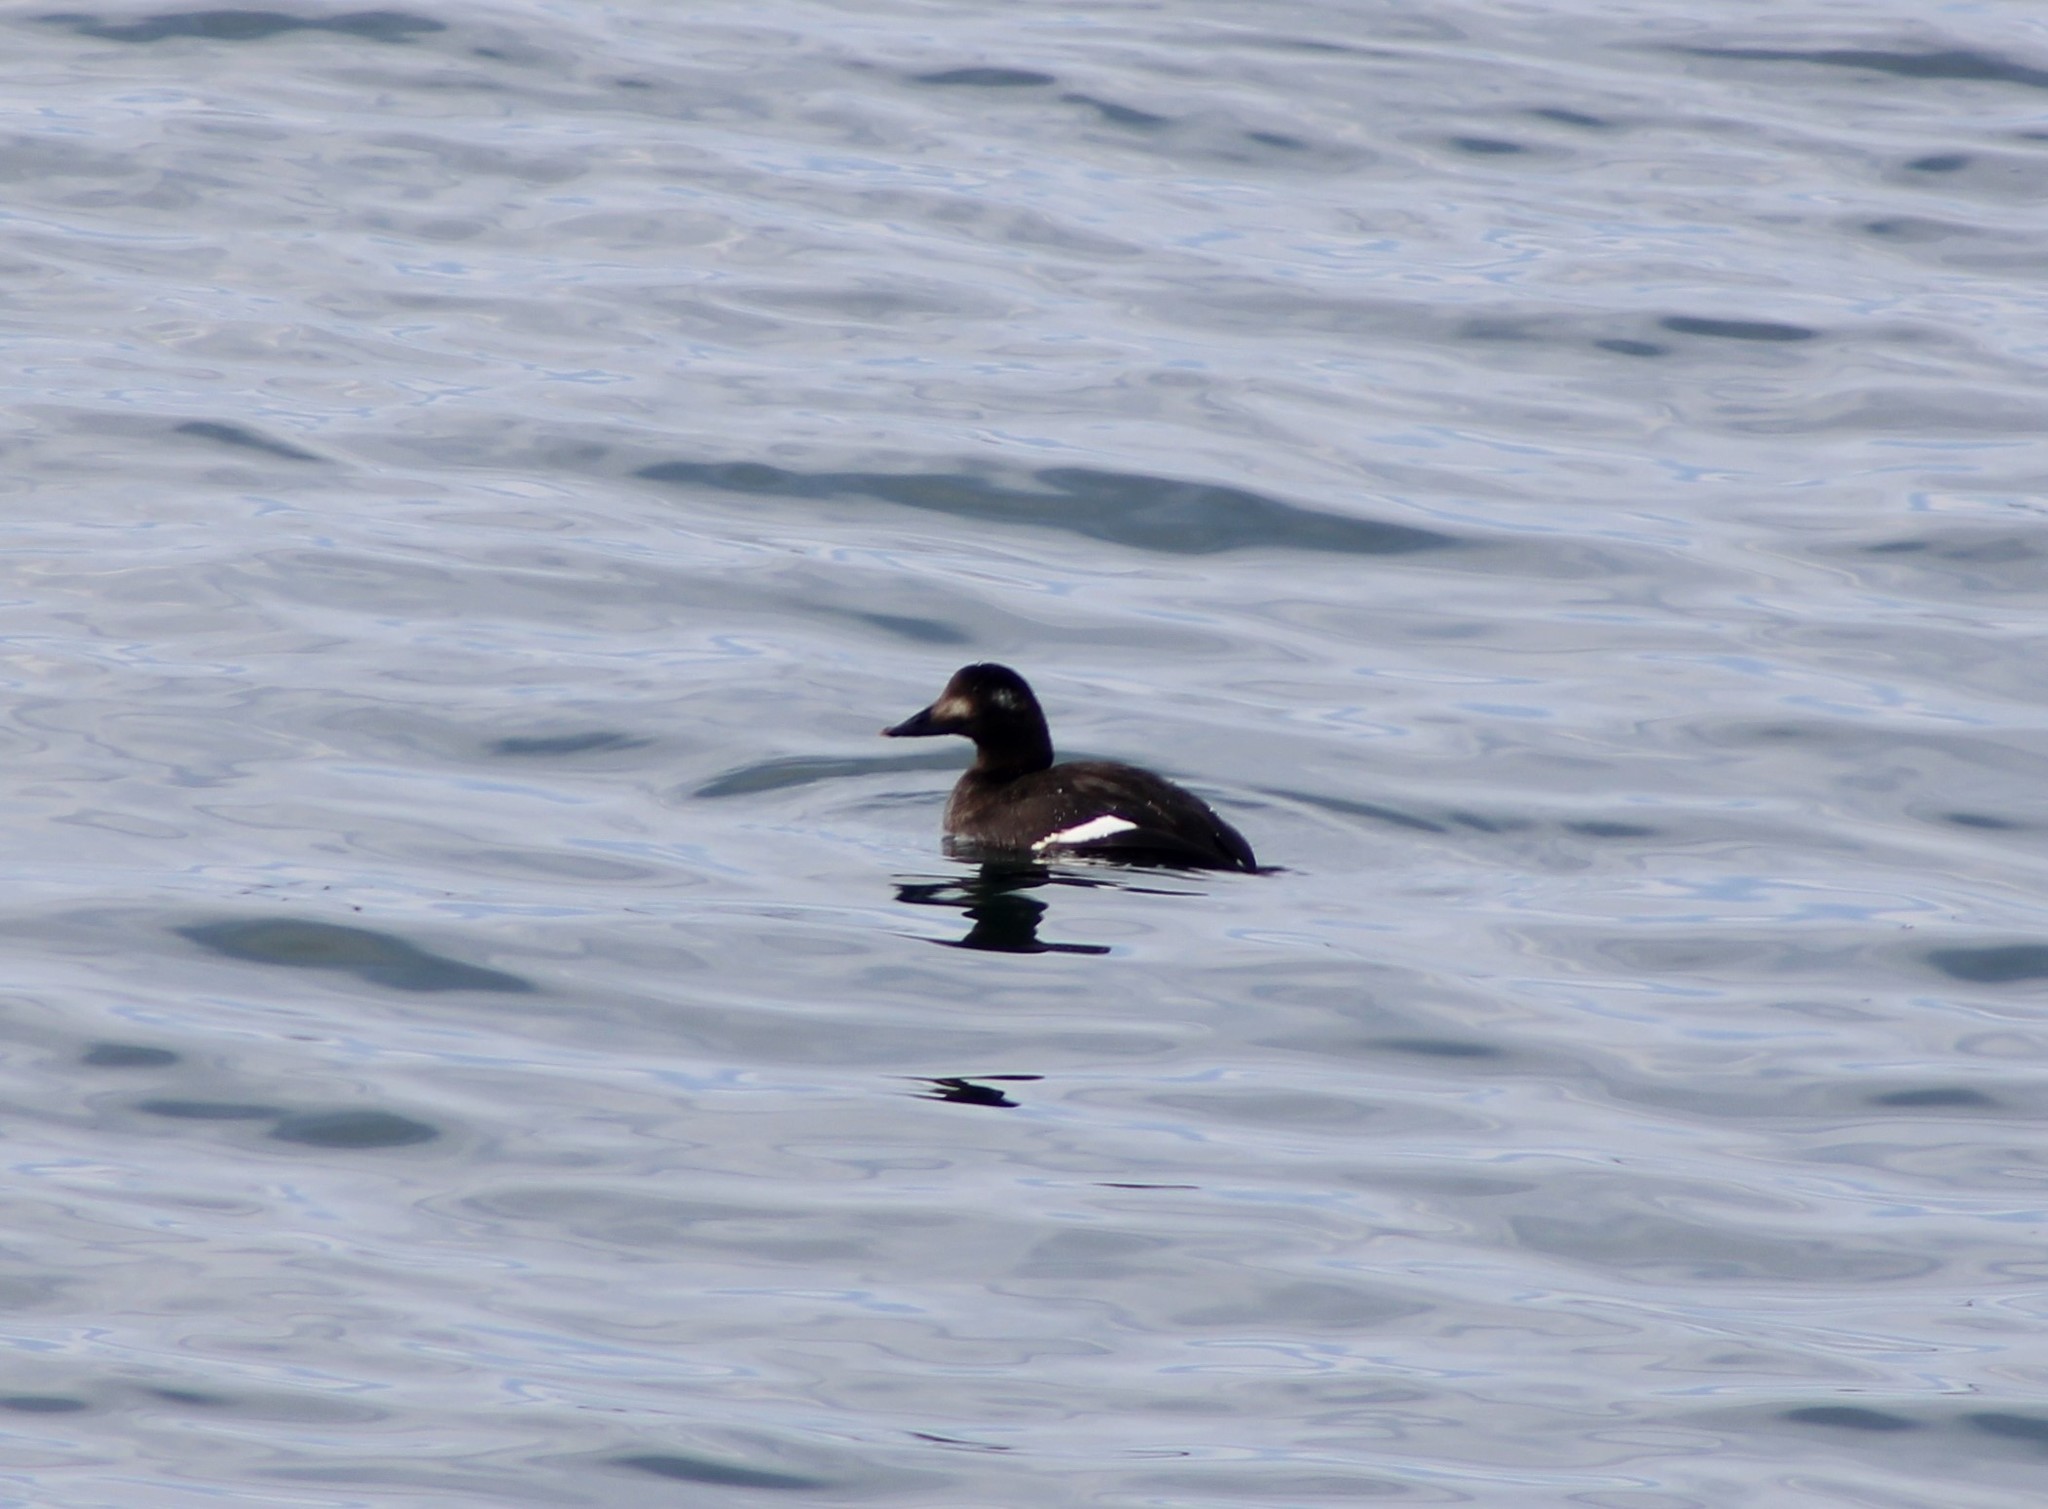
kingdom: Animalia
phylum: Chordata
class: Aves
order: Anseriformes
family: Anatidae
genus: Melanitta
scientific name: Melanitta deglandi
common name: White-winged scoter
